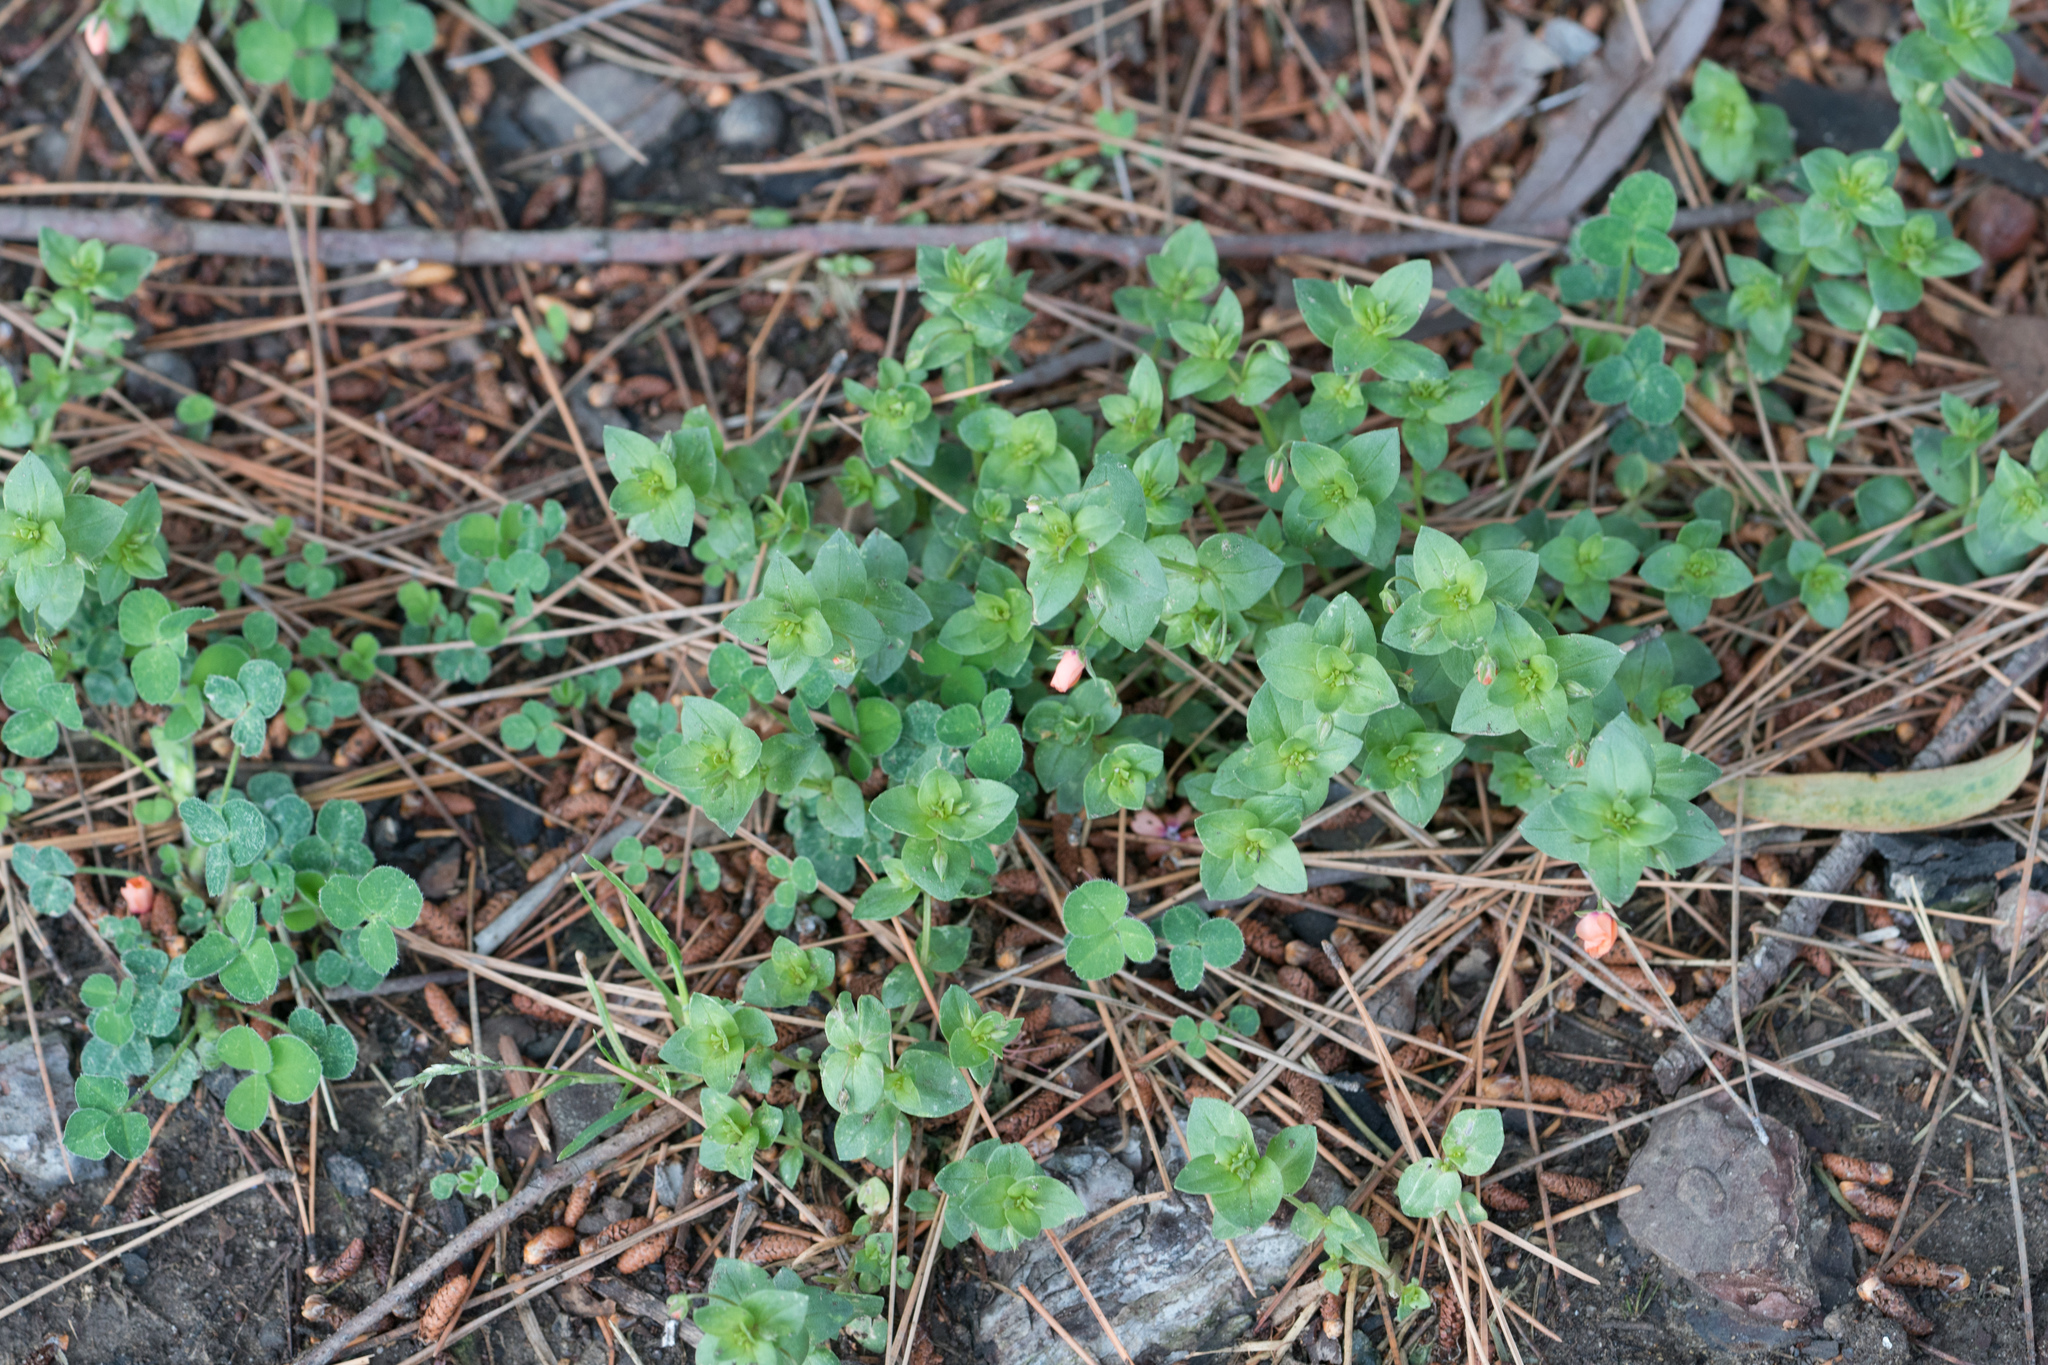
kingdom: Plantae
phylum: Tracheophyta
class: Magnoliopsida
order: Ericales
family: Primulaceae
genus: Lysimachia
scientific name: Lysimachia arvensis
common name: Scarlet pimpernel
